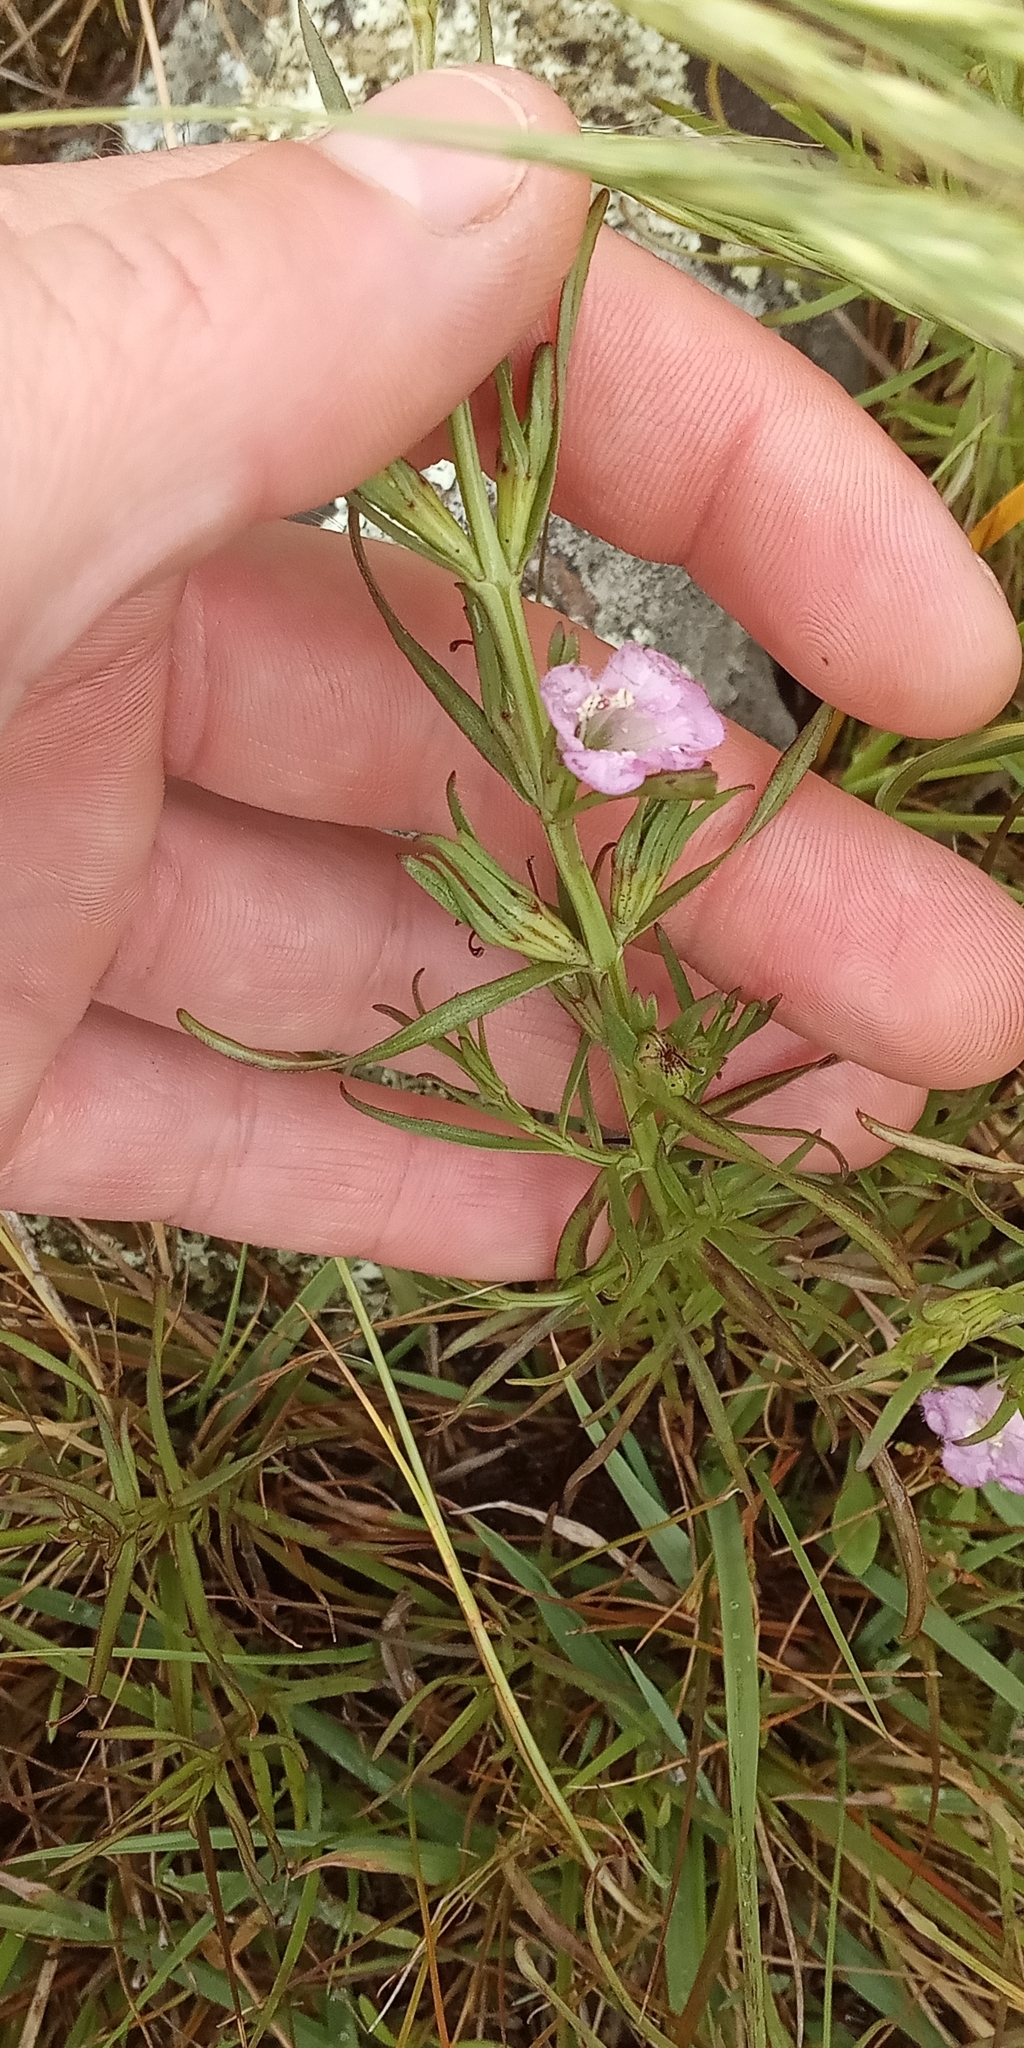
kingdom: Plantae
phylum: Tracheophyta
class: Magnoliopsida
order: Lamiales
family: Orobanchaceae
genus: Agalinis
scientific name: Agalinis communis
